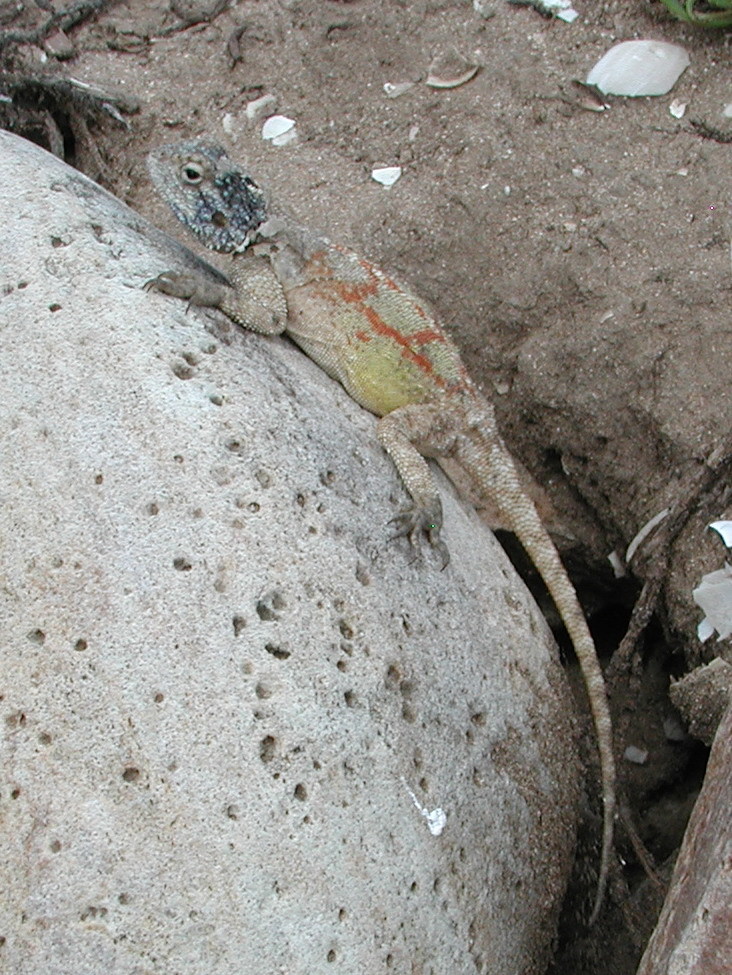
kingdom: Animalia
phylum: Chordata
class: Squamata
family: Agamidae
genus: Agama
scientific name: Agama atra
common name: Southern african rock agama
